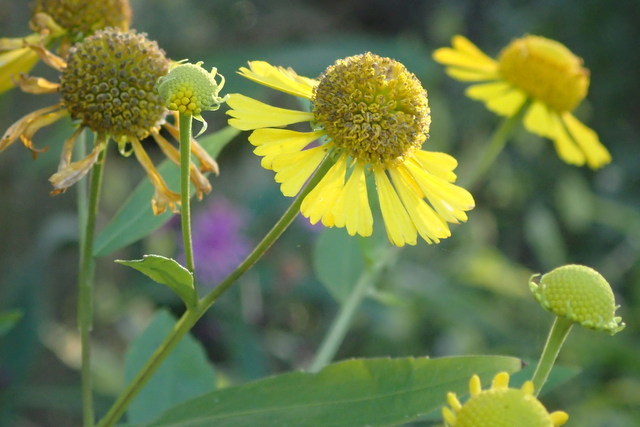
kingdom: Plantae
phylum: Tracheophyta
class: Magnoliopsida
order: Asterales
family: Asteraceae
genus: Helenium
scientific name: Helenium autumnale
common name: Sneezeweed
